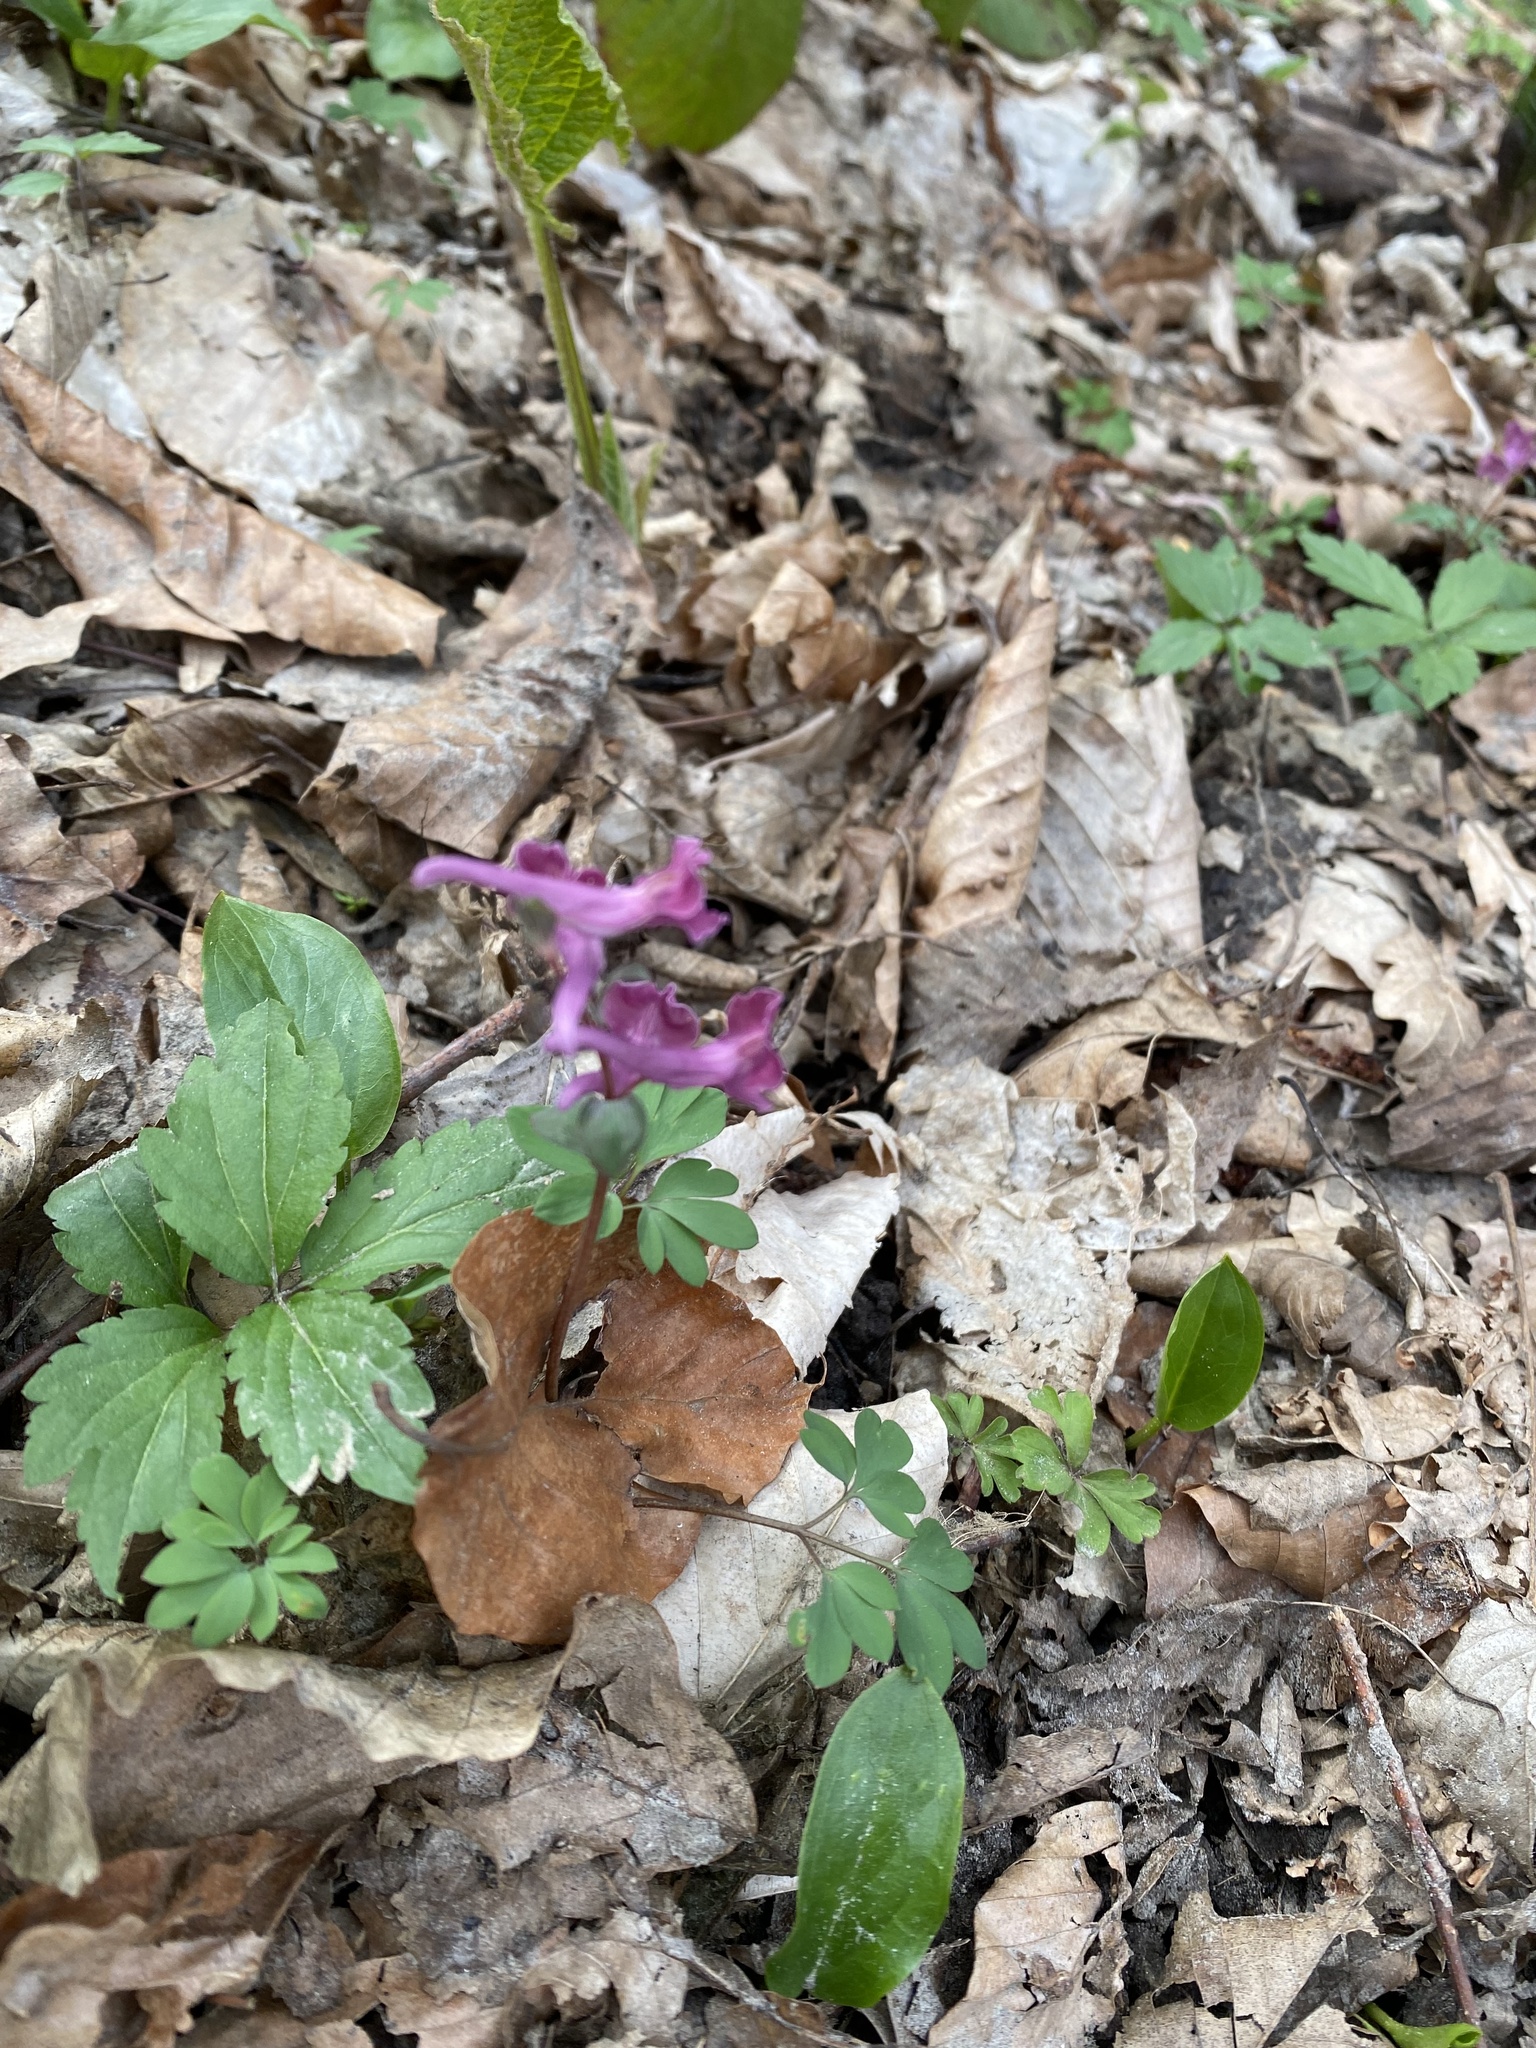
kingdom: Plantae
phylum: Tracheophyta
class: Magnoliopsida
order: Ranunculales
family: Papaveraceae
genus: Corydalis
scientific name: Corydalis caucasica
